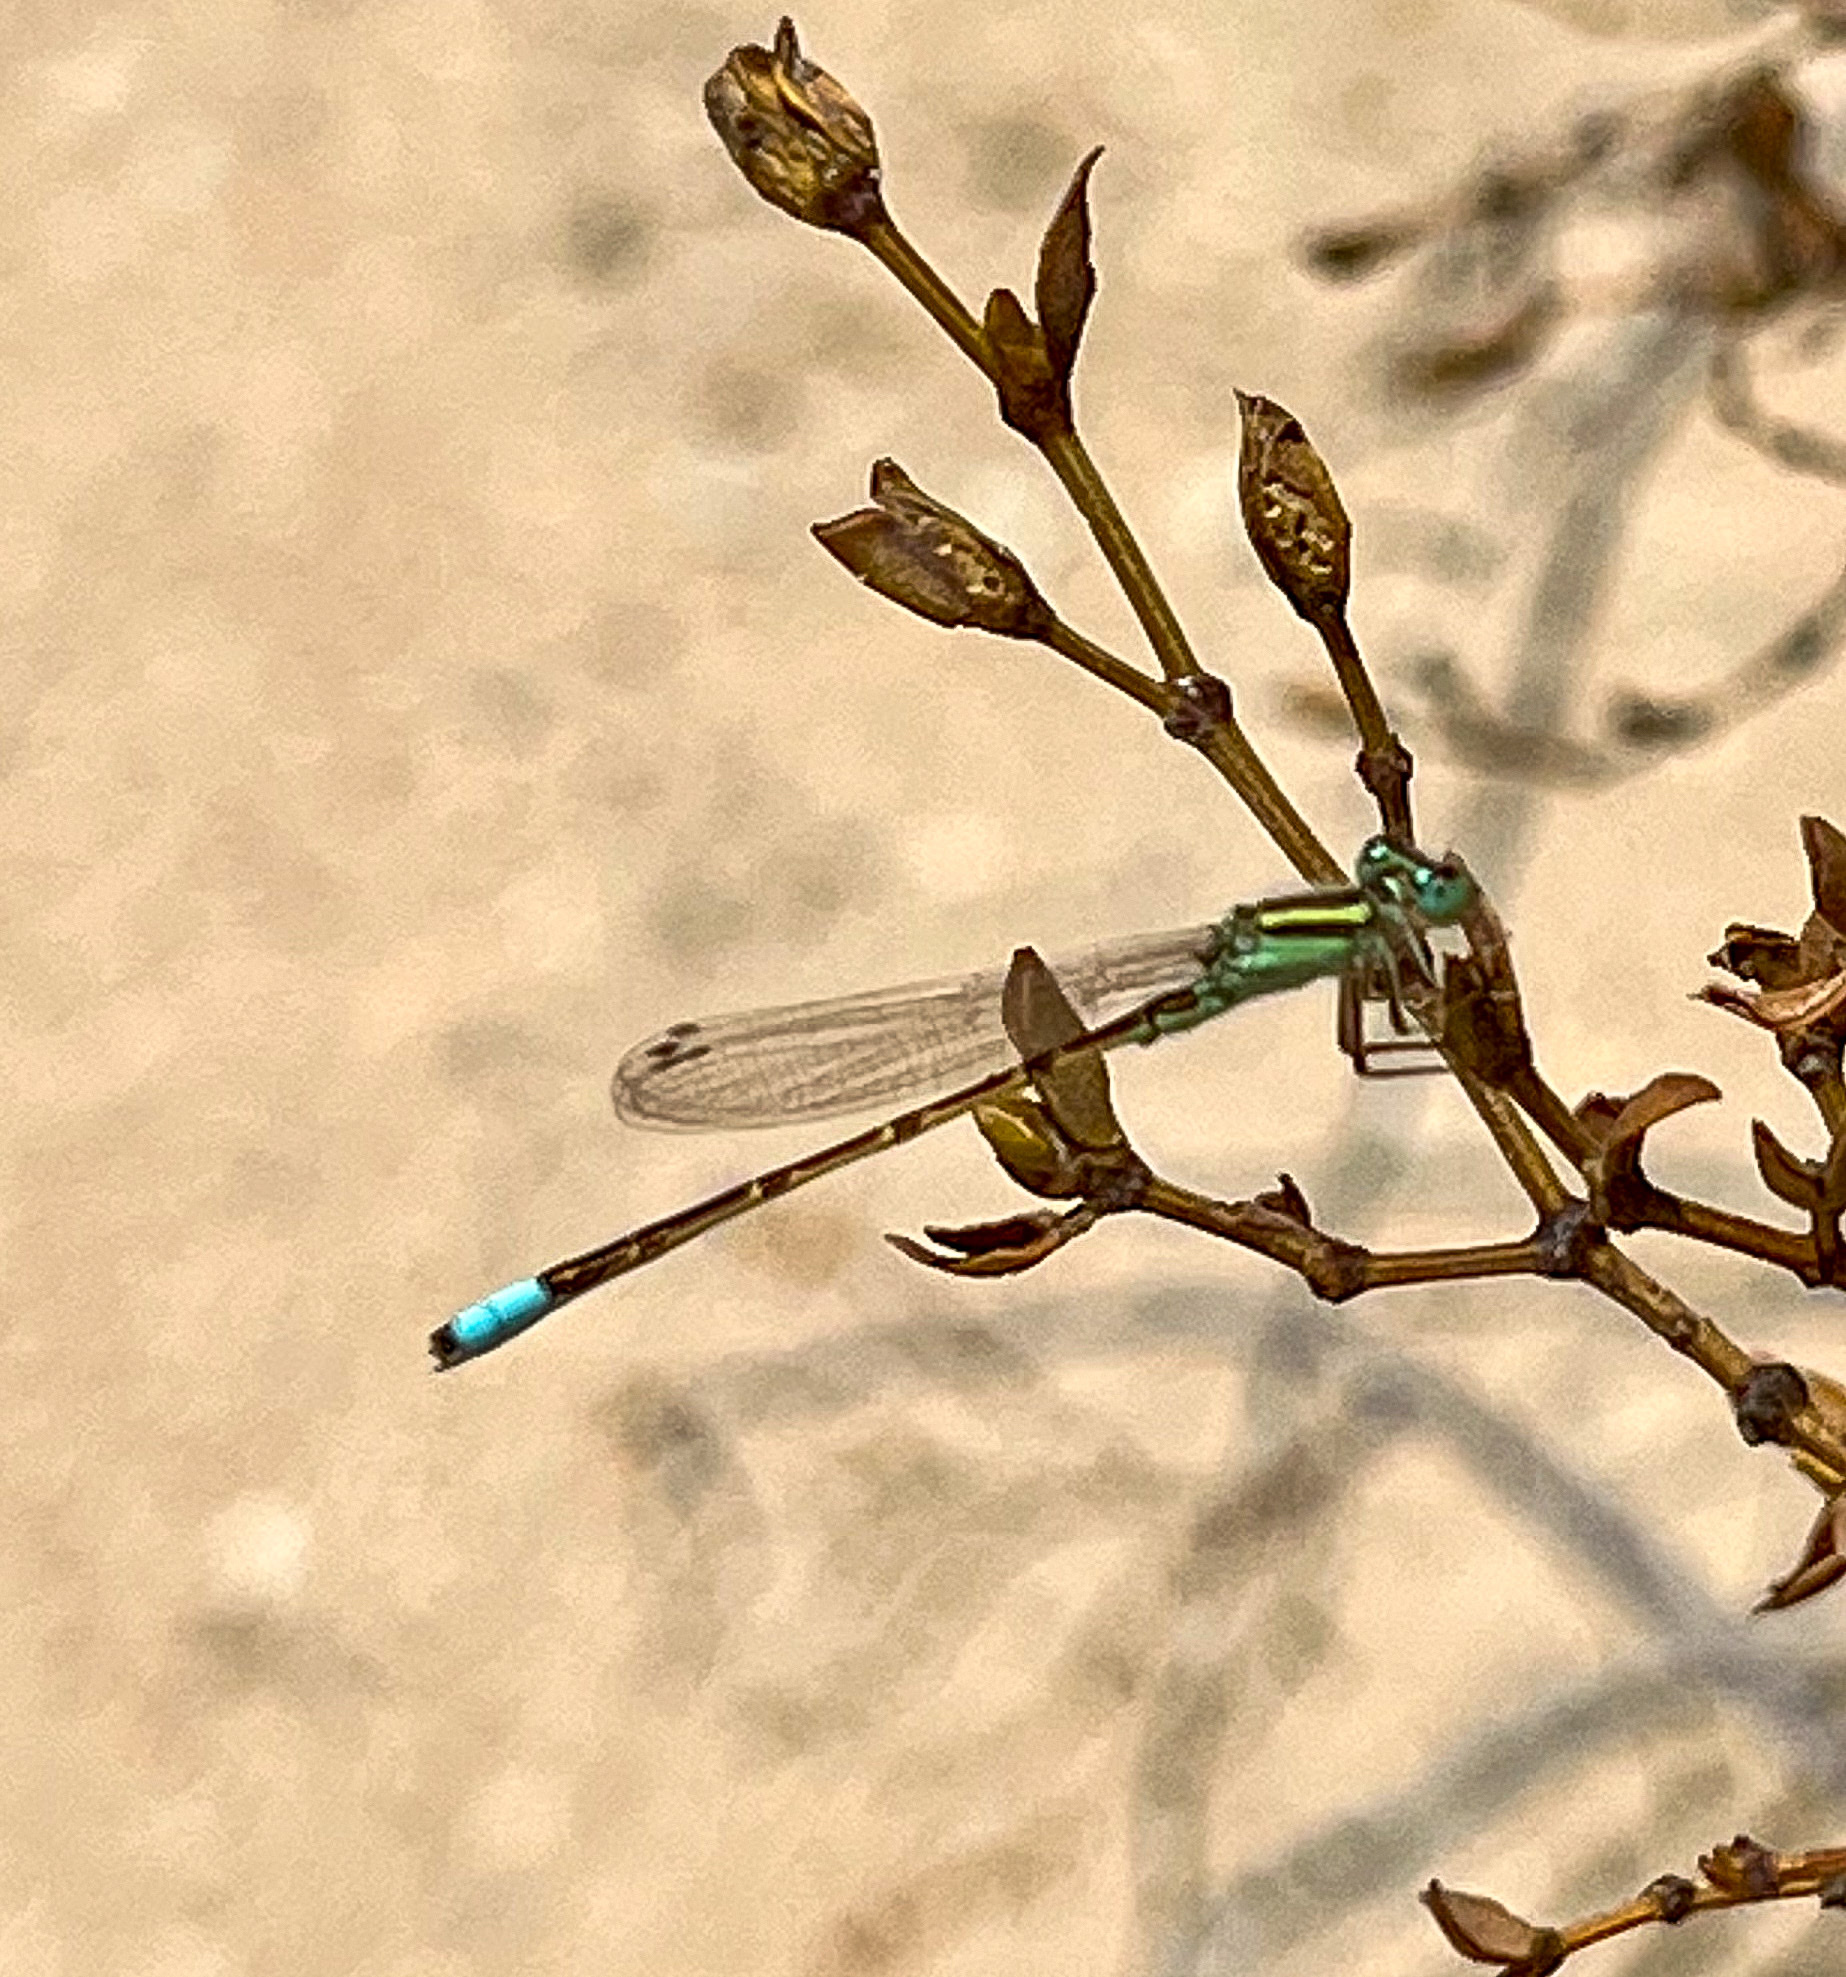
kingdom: Animalia
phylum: Arthropoda
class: Insecta
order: Odonata
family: Coenagrionidae
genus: Ischnura
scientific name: Ischnura barberi
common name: Desert forktail
